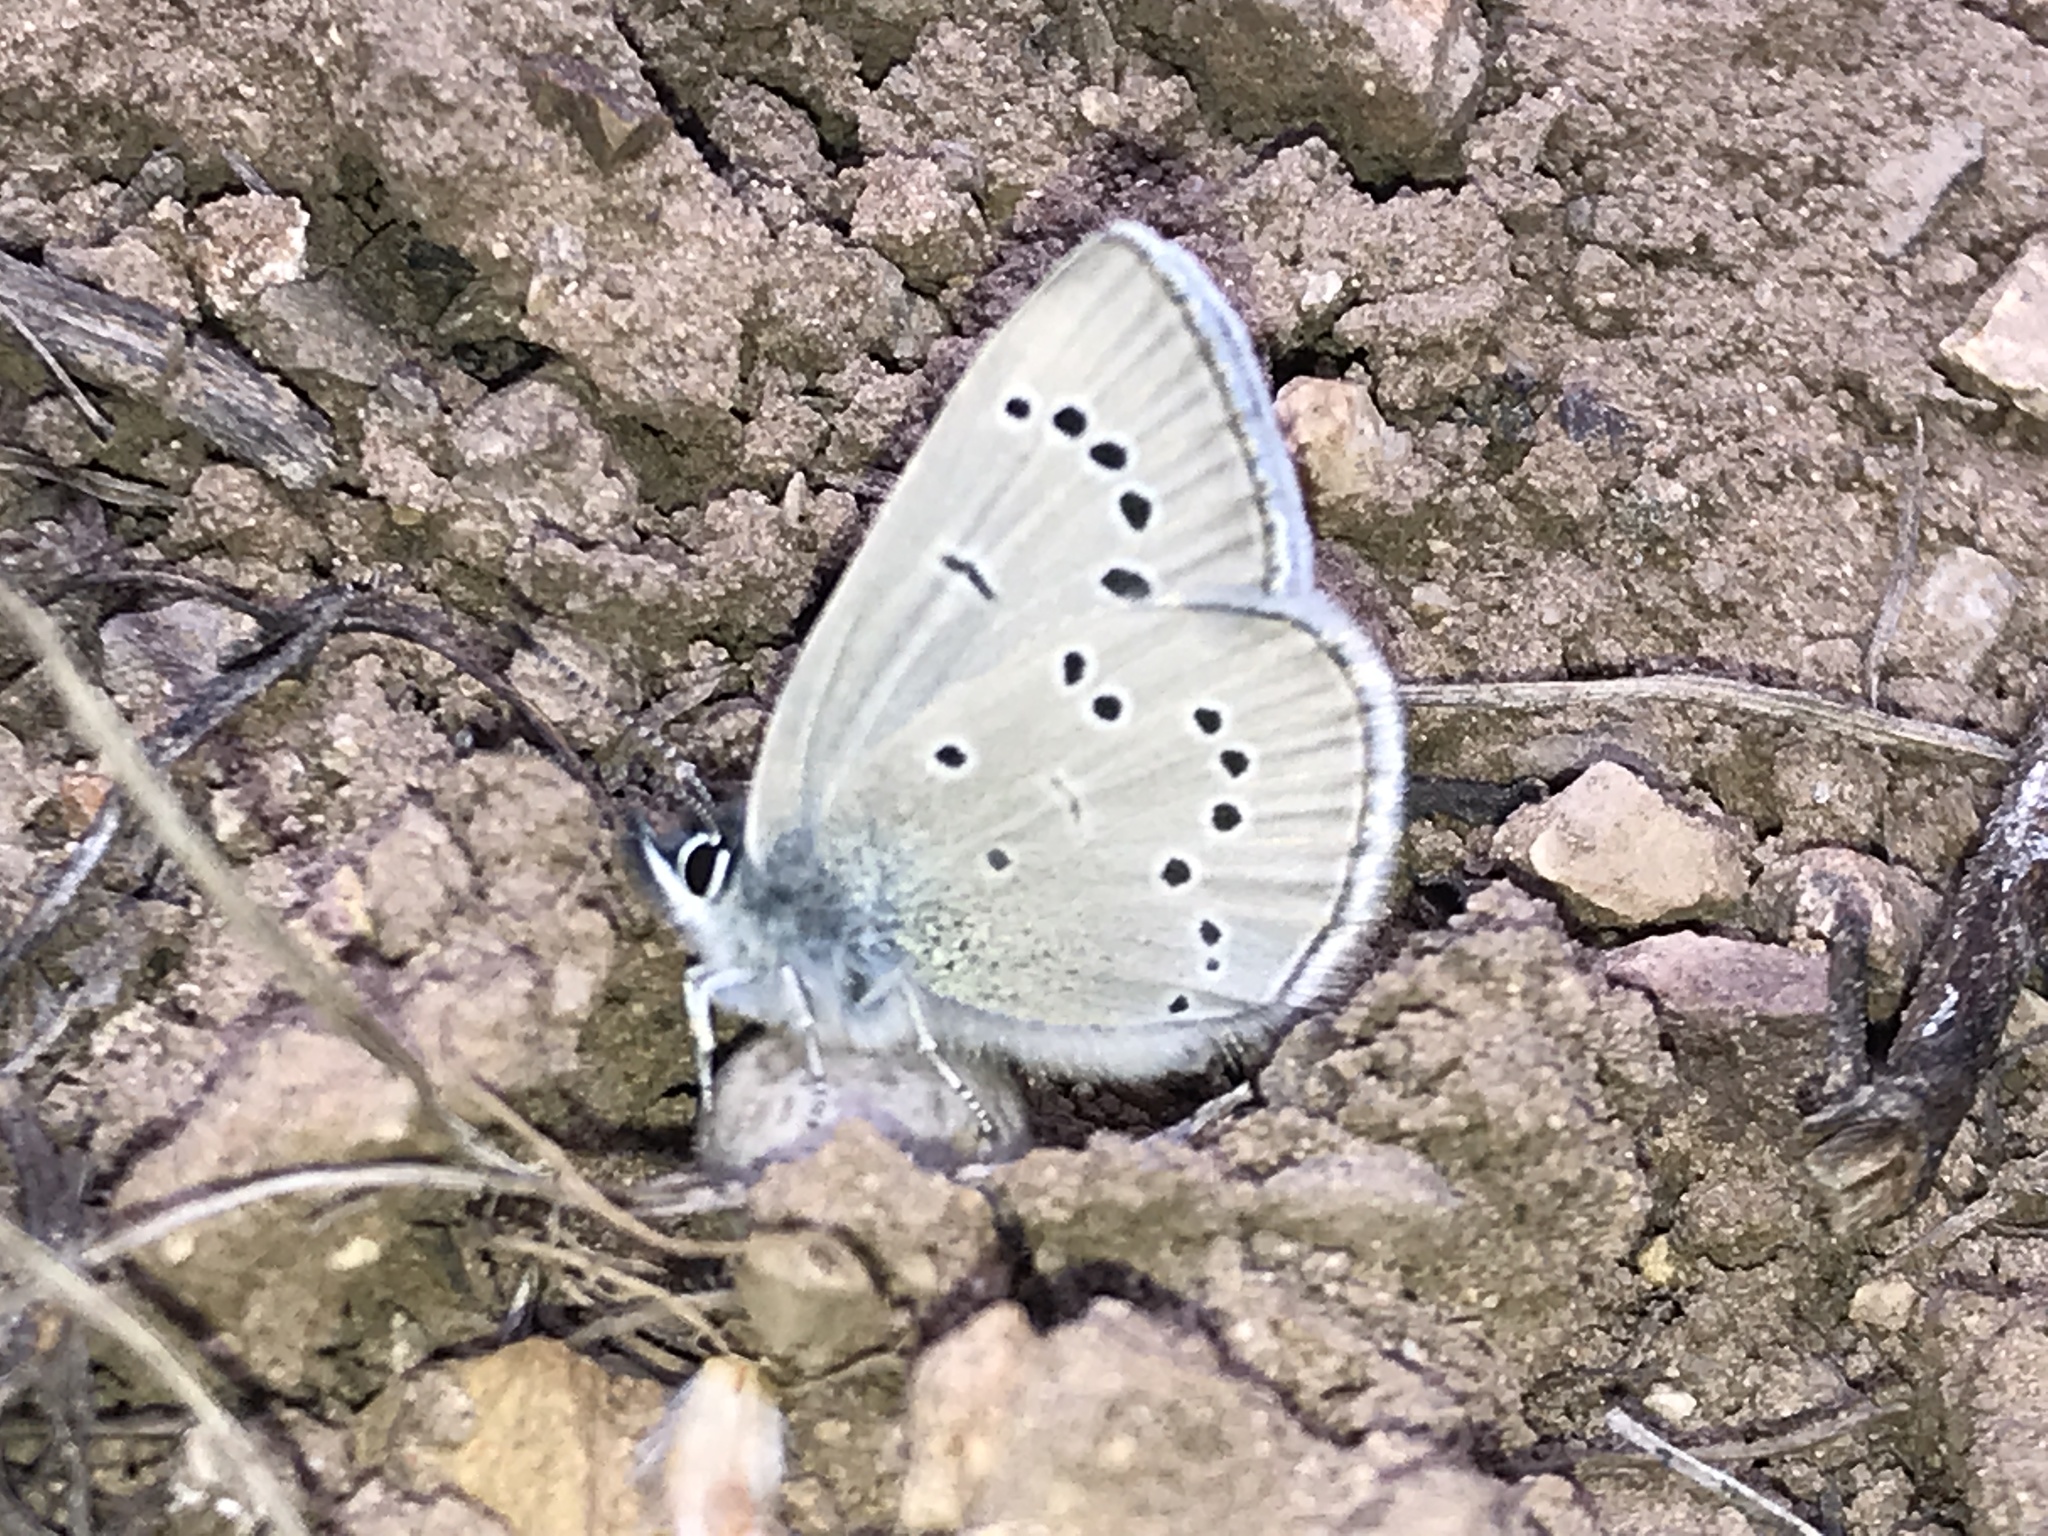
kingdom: Animalia
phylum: Arthropoda
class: Insecta
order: Lepidoptera
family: Lycaenidae
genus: Glaucopsyche
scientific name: Glaucopsyche lygdamus
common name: Silvery blue
